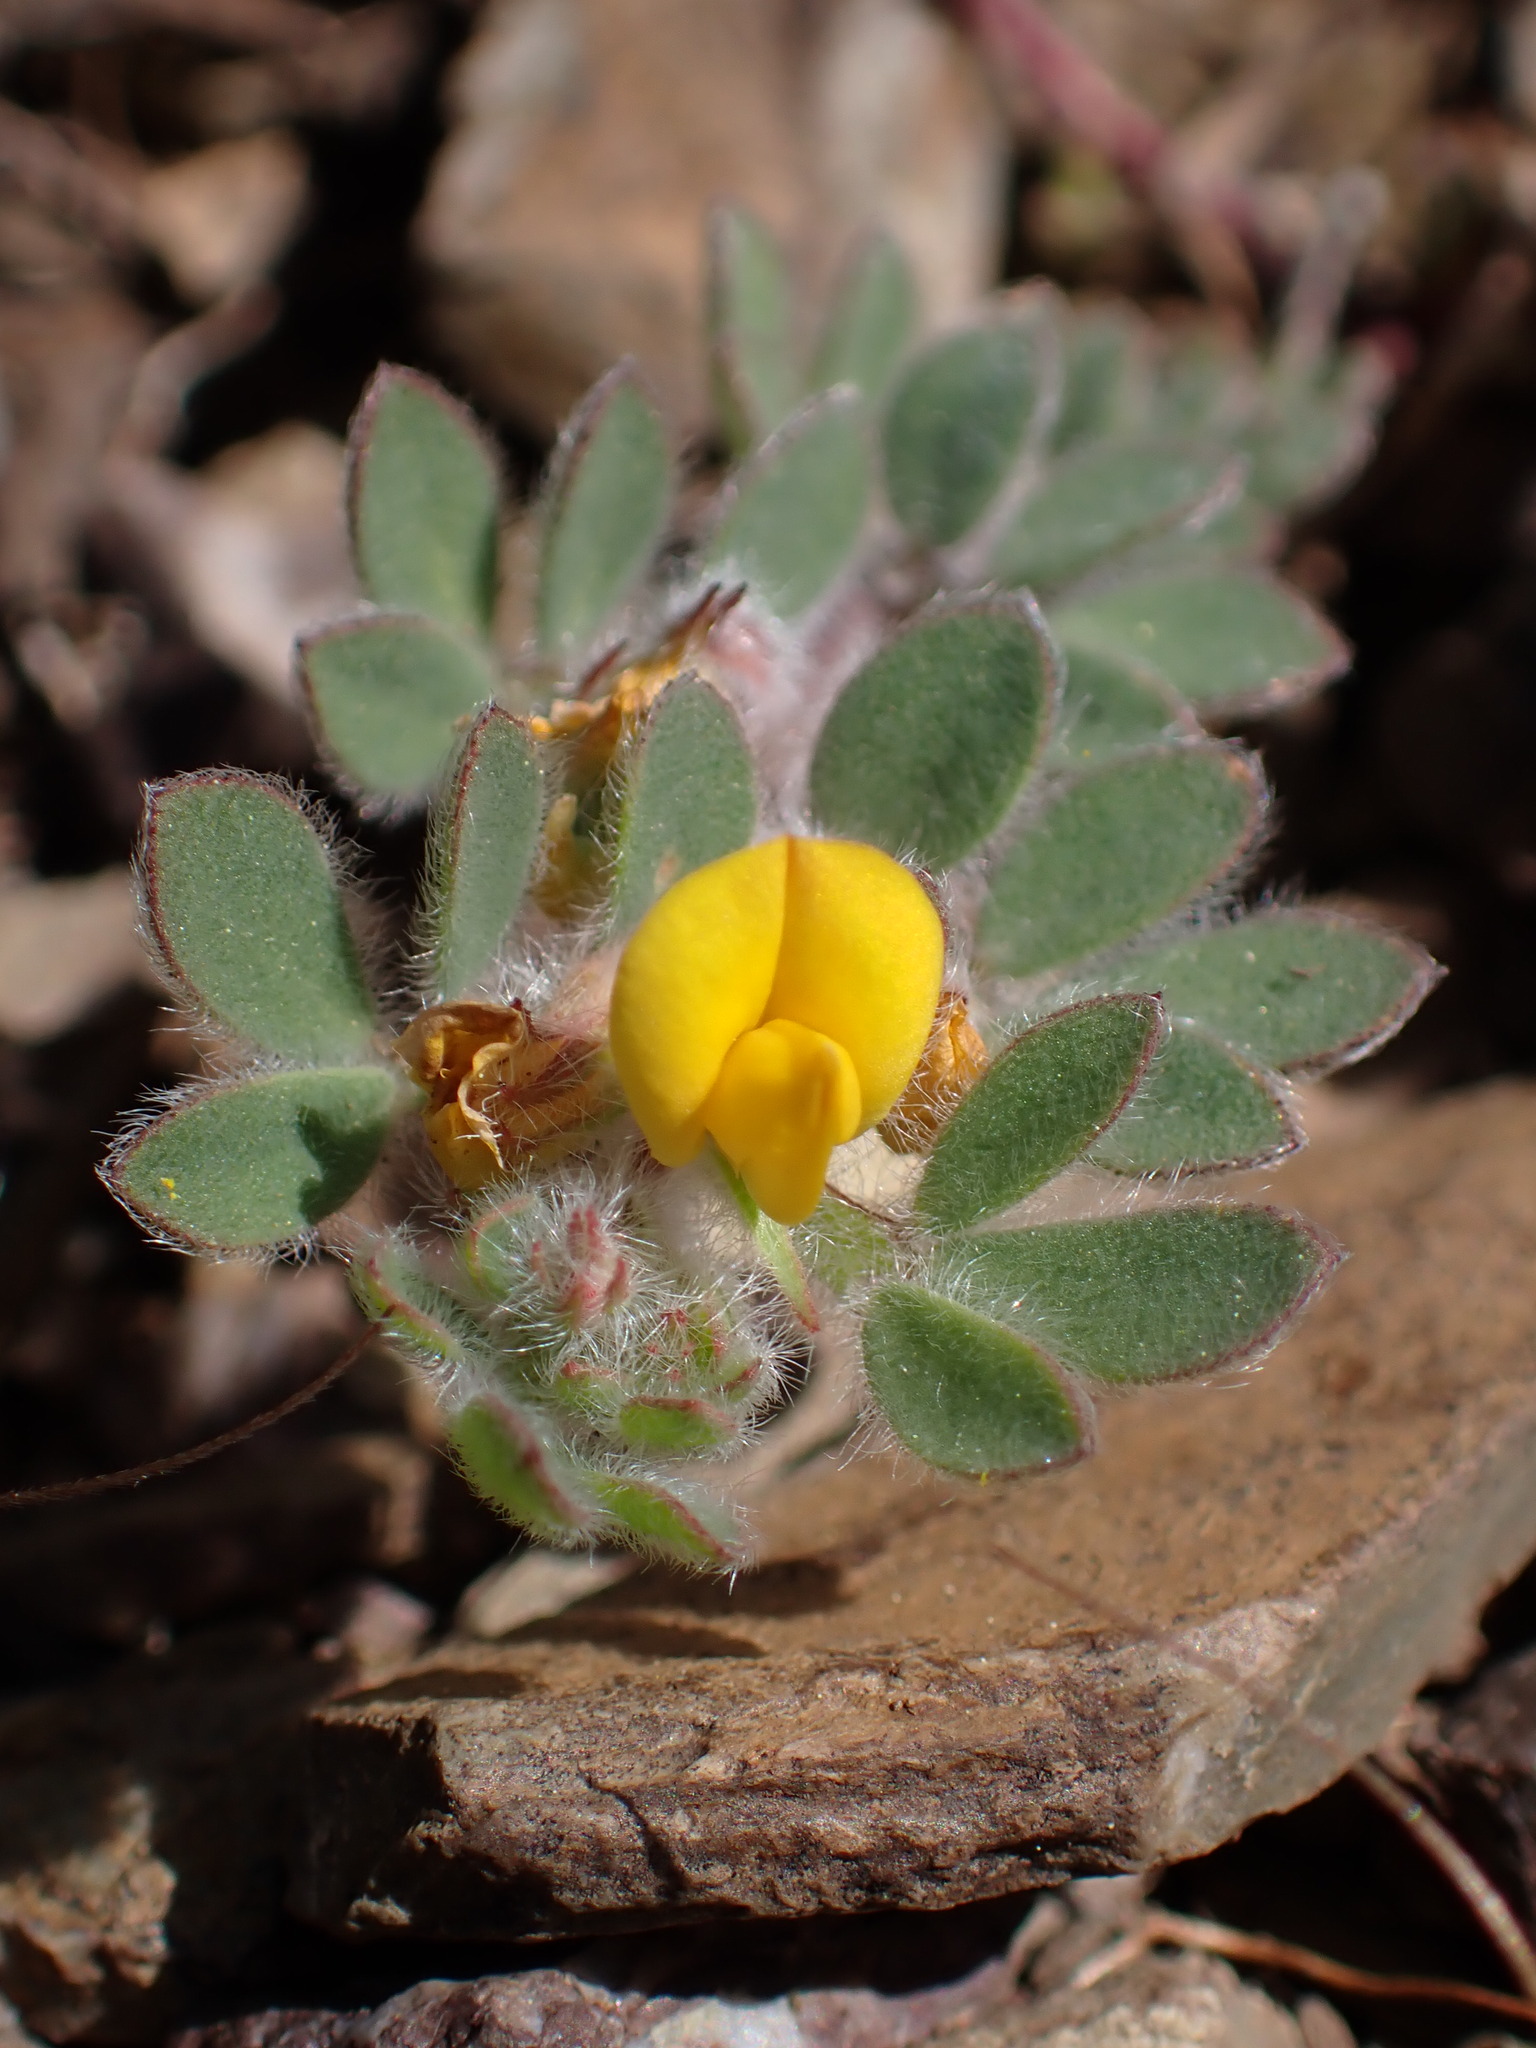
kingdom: Plantae
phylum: Tracheophyta
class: Magnoliopsida
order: Fabales
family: Fabaceae
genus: Acmispon
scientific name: Acmispon brachycarpus
